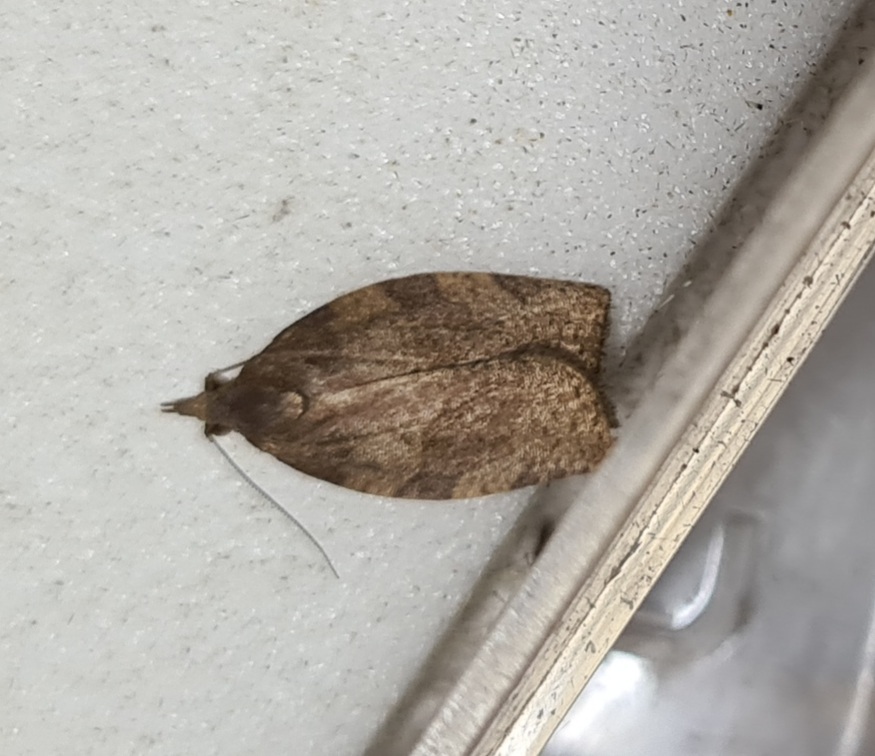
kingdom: Animalia
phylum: Arthropoda
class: Insecta
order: Lepidoptera
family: Tortricidae
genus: Pandemis
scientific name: Pandemis heparana
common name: Dark fruit-tree tortrix
